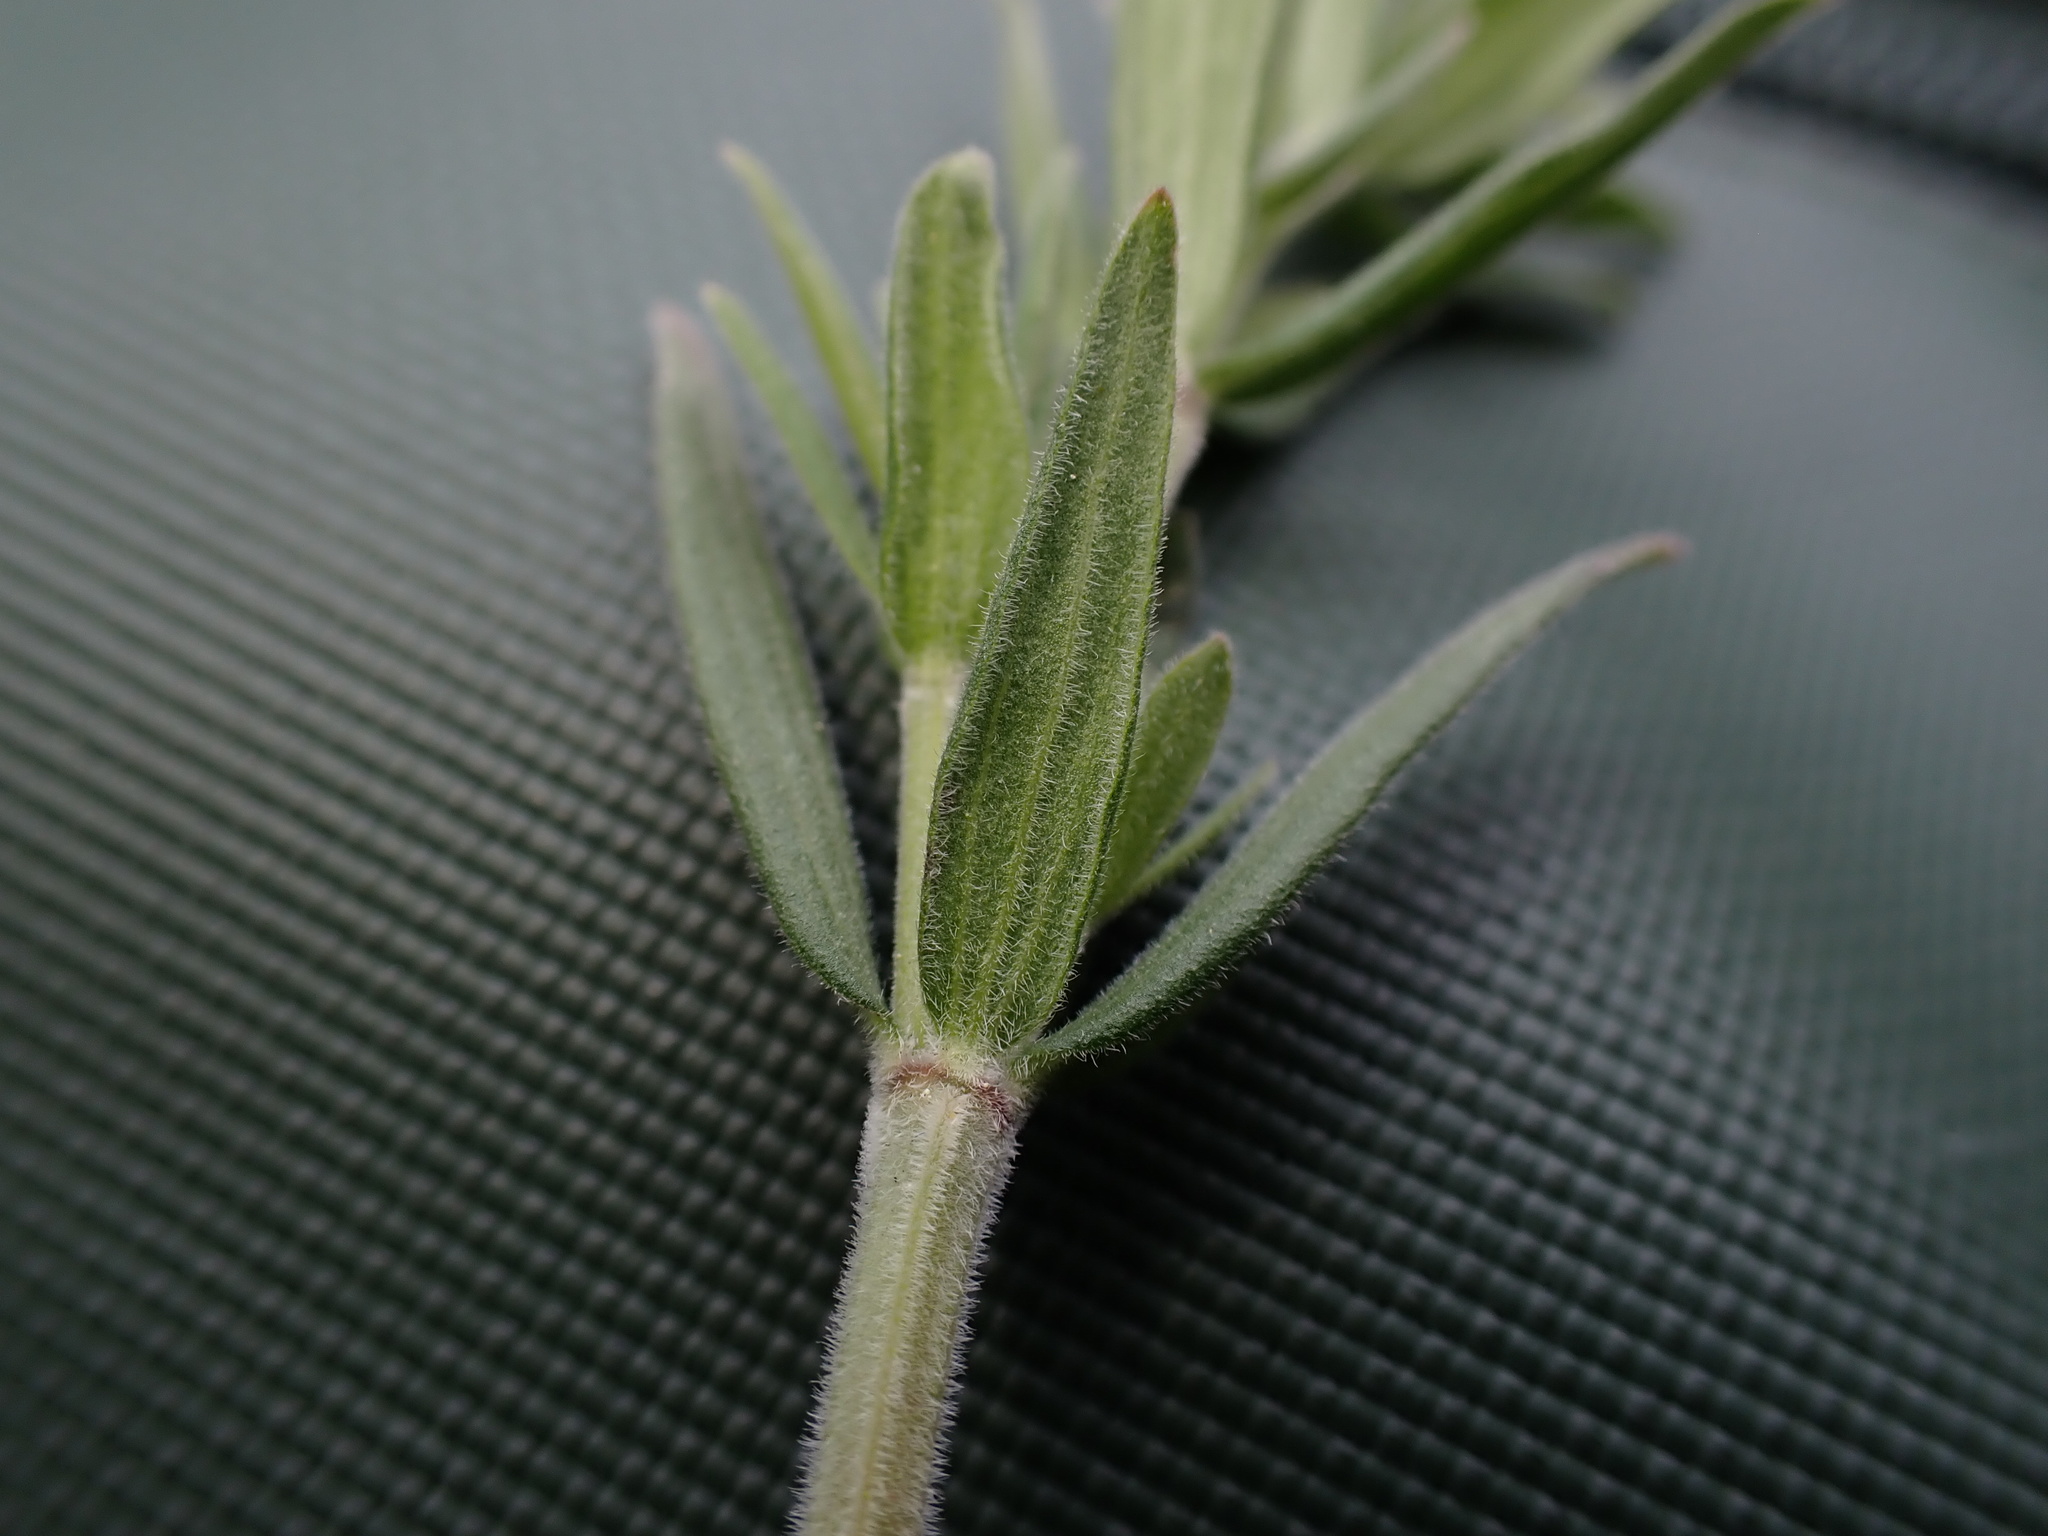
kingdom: Plantae
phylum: Tracheophyta
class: Magnoliopsida
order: Gentianales
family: Rubiaceae
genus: Galium
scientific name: Galium boreale
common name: Northern bedstraw
